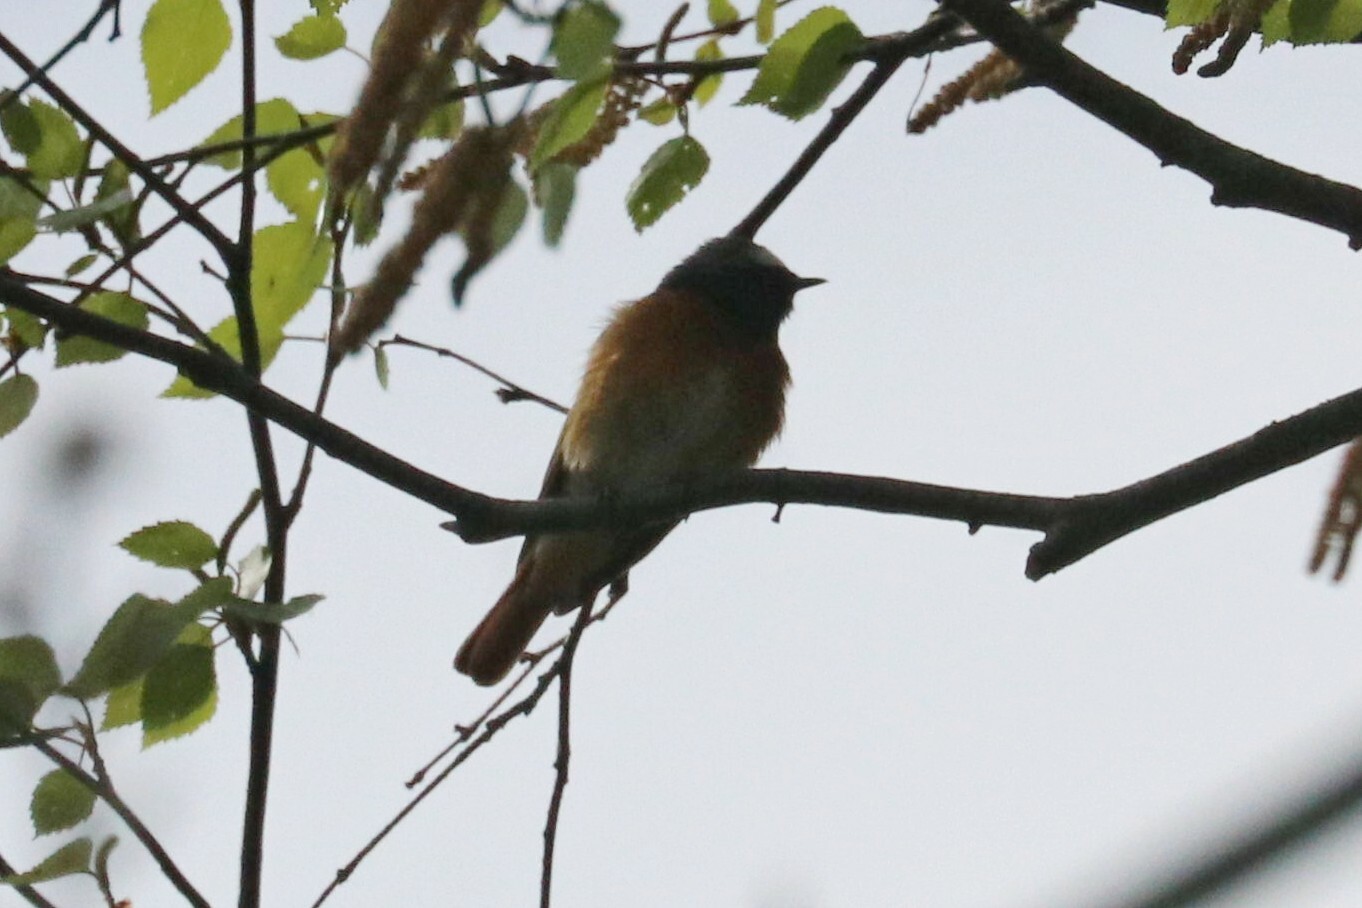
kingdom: Animalia
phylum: Chordata
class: Aves
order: Passeriformes
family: Muscicapidae
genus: Phoenicurus
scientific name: Phoenicurus phoenicurus
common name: Common redstart
